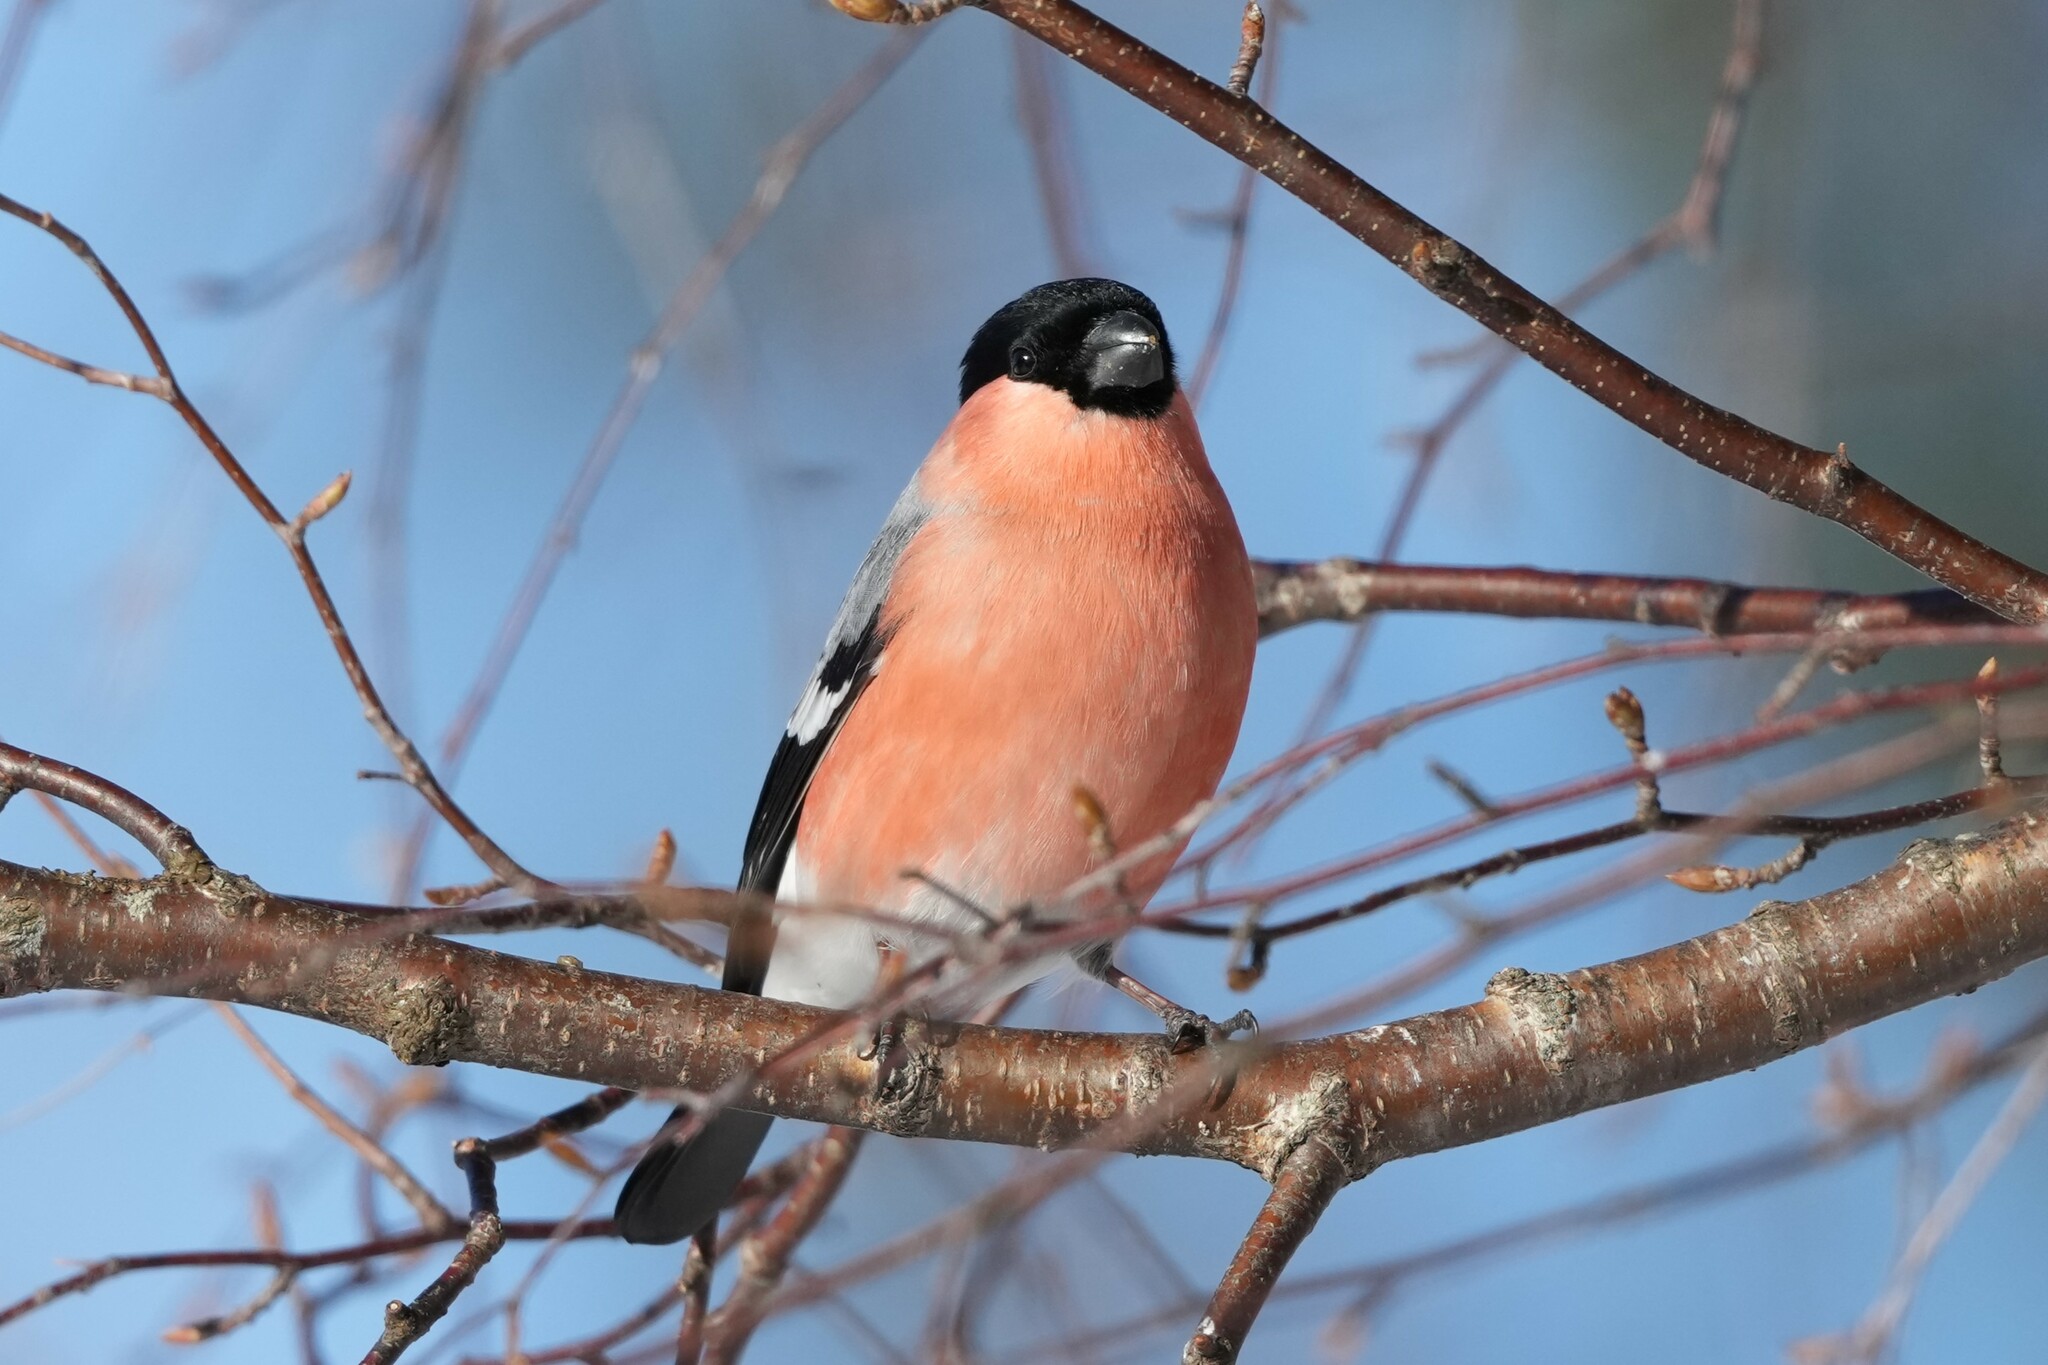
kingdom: Animalia
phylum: Chordata
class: Aves
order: Passeriformes
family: Fringillidae
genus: Pyrrhula
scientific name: Pyrrhula pyrrhula
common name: Eurasian bullfinch
